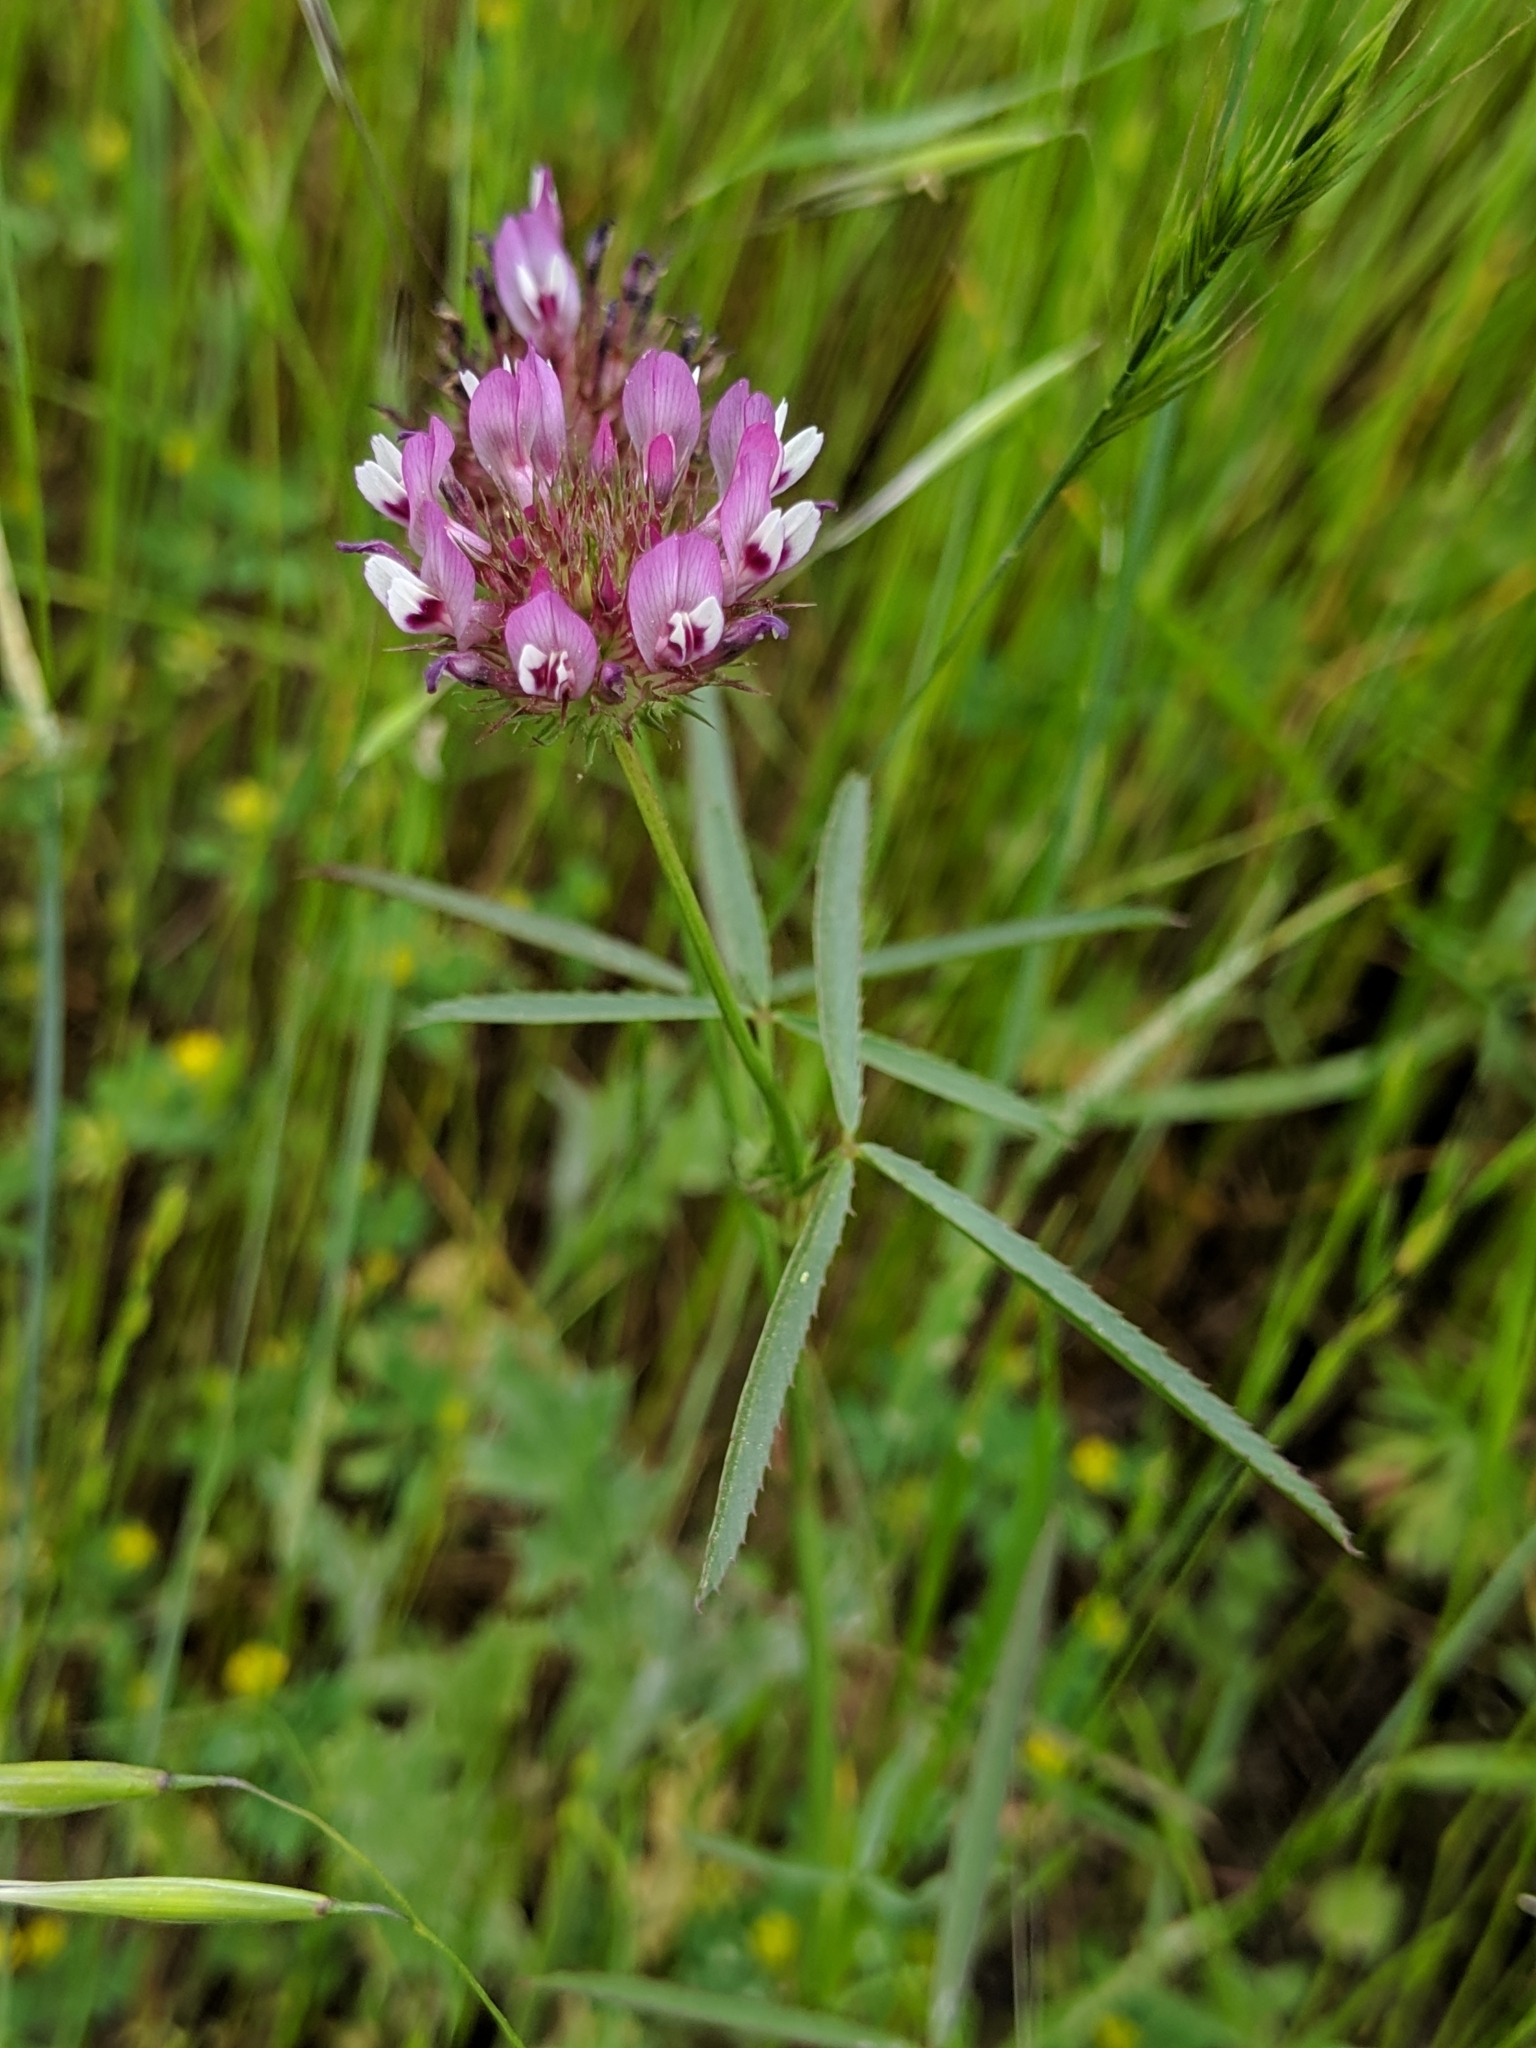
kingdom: Plantae
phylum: Tracheophyta
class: Magnoliopsida
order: Fabales
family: Fabaceae
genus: Trifolium
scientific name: Trifolium willdenovii
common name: Tomcat clover
